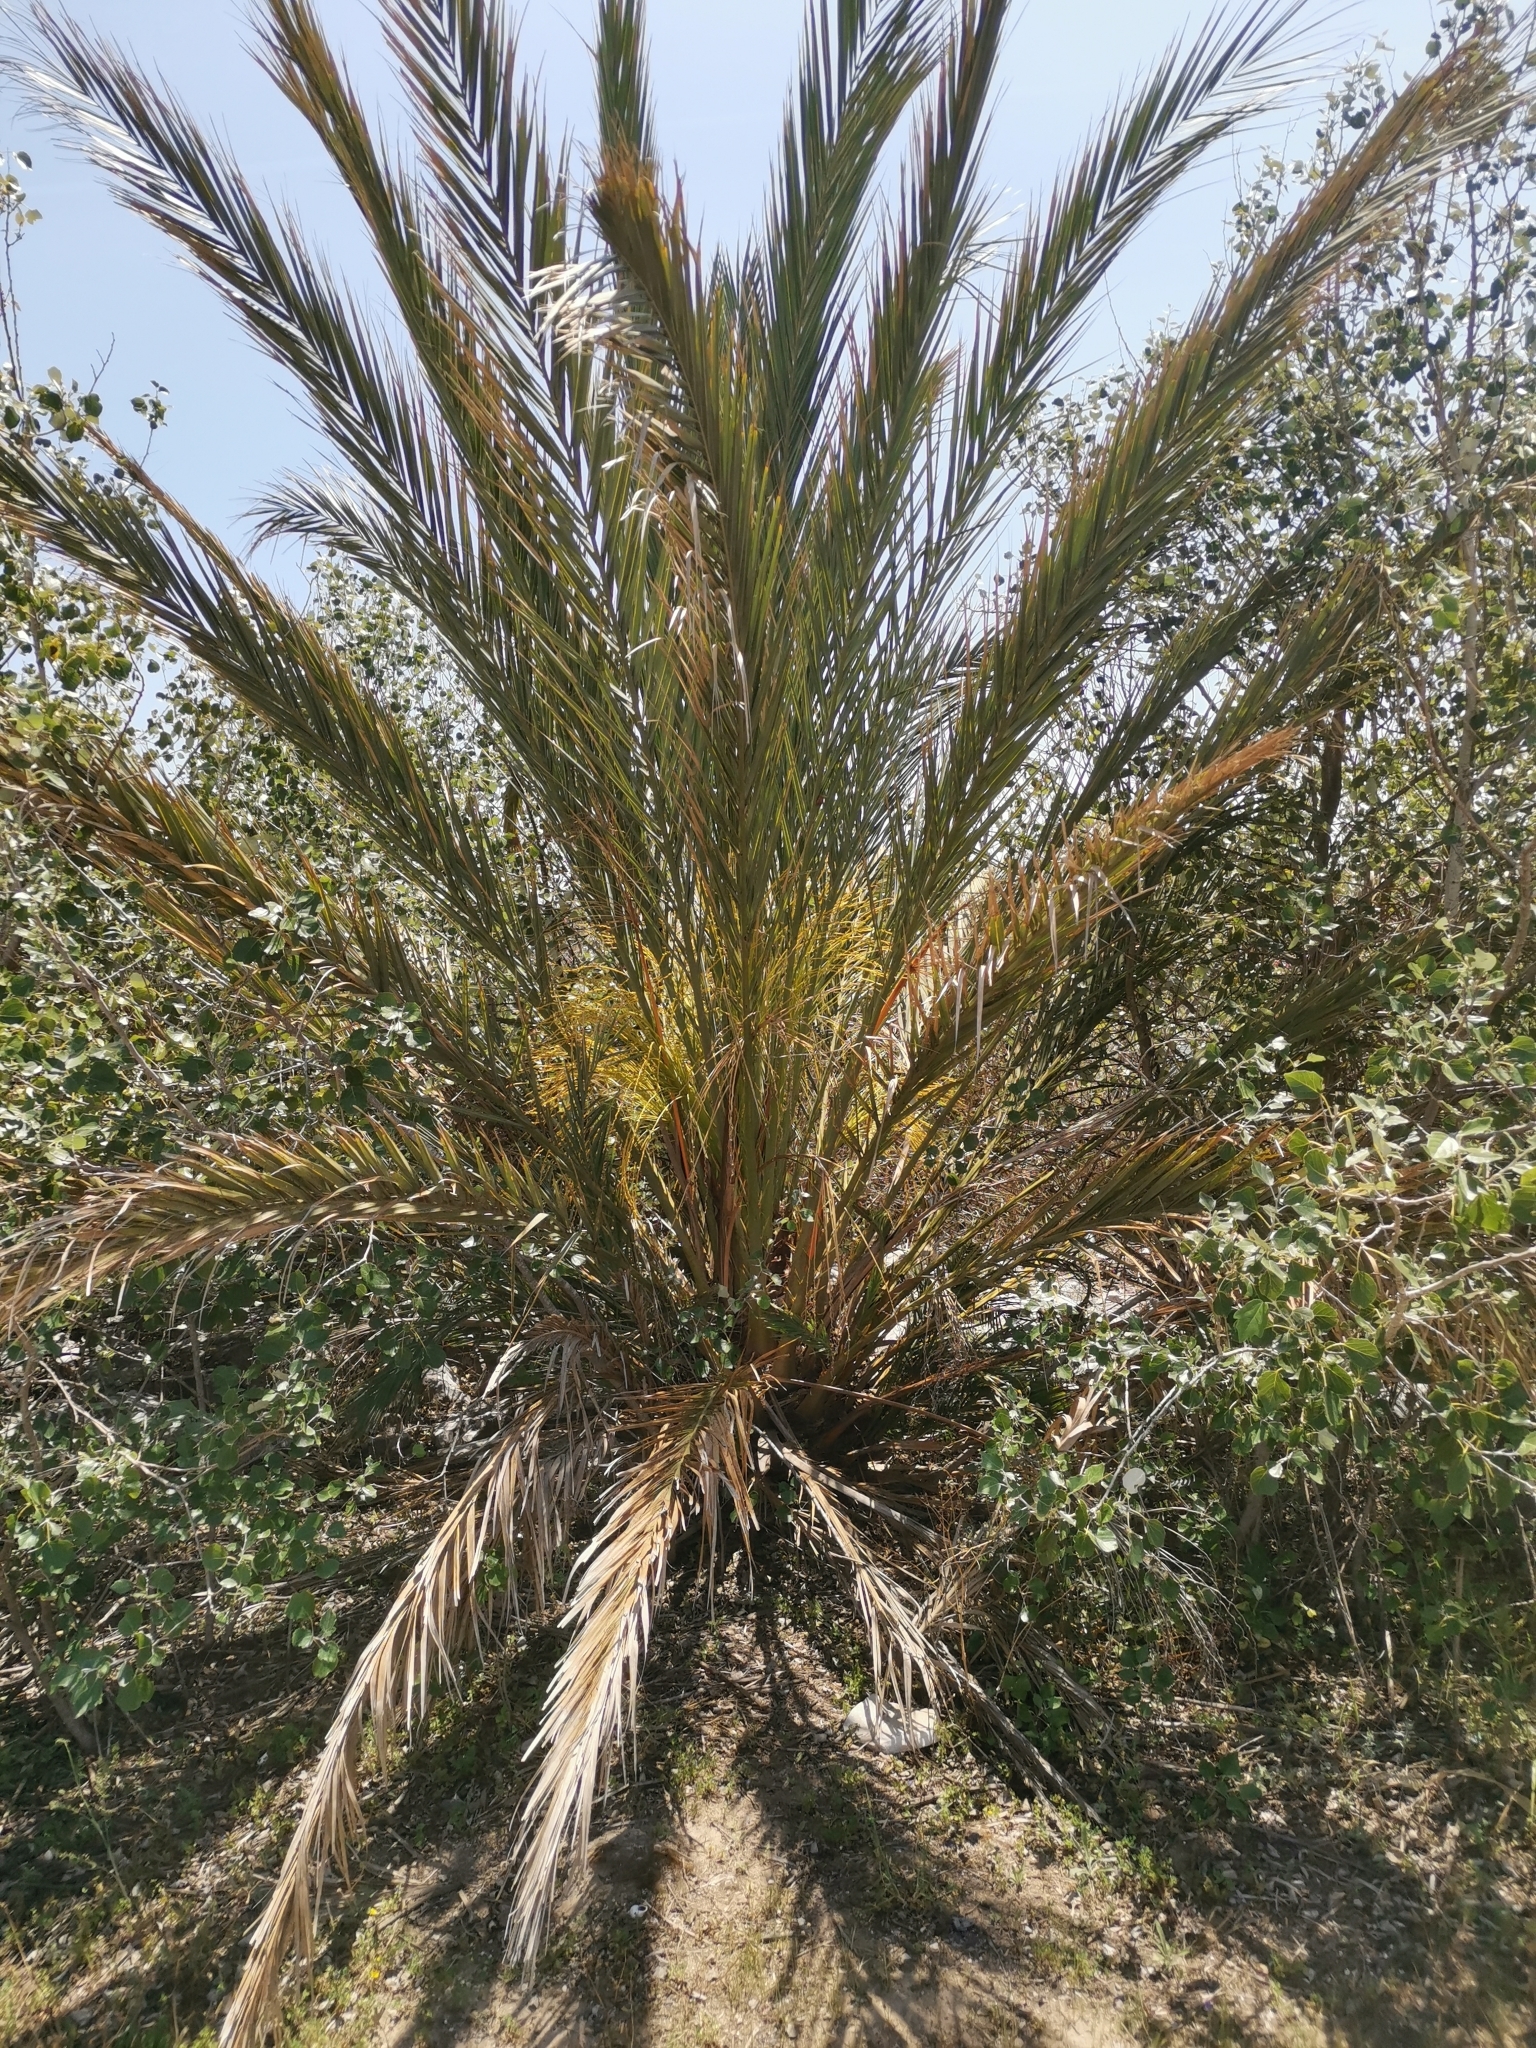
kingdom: Plantae
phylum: Tracheophyta
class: Liliopsida
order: Arecales
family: Arecaceae
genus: Phoenix
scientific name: Phoenix dactylifera
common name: Date palm
